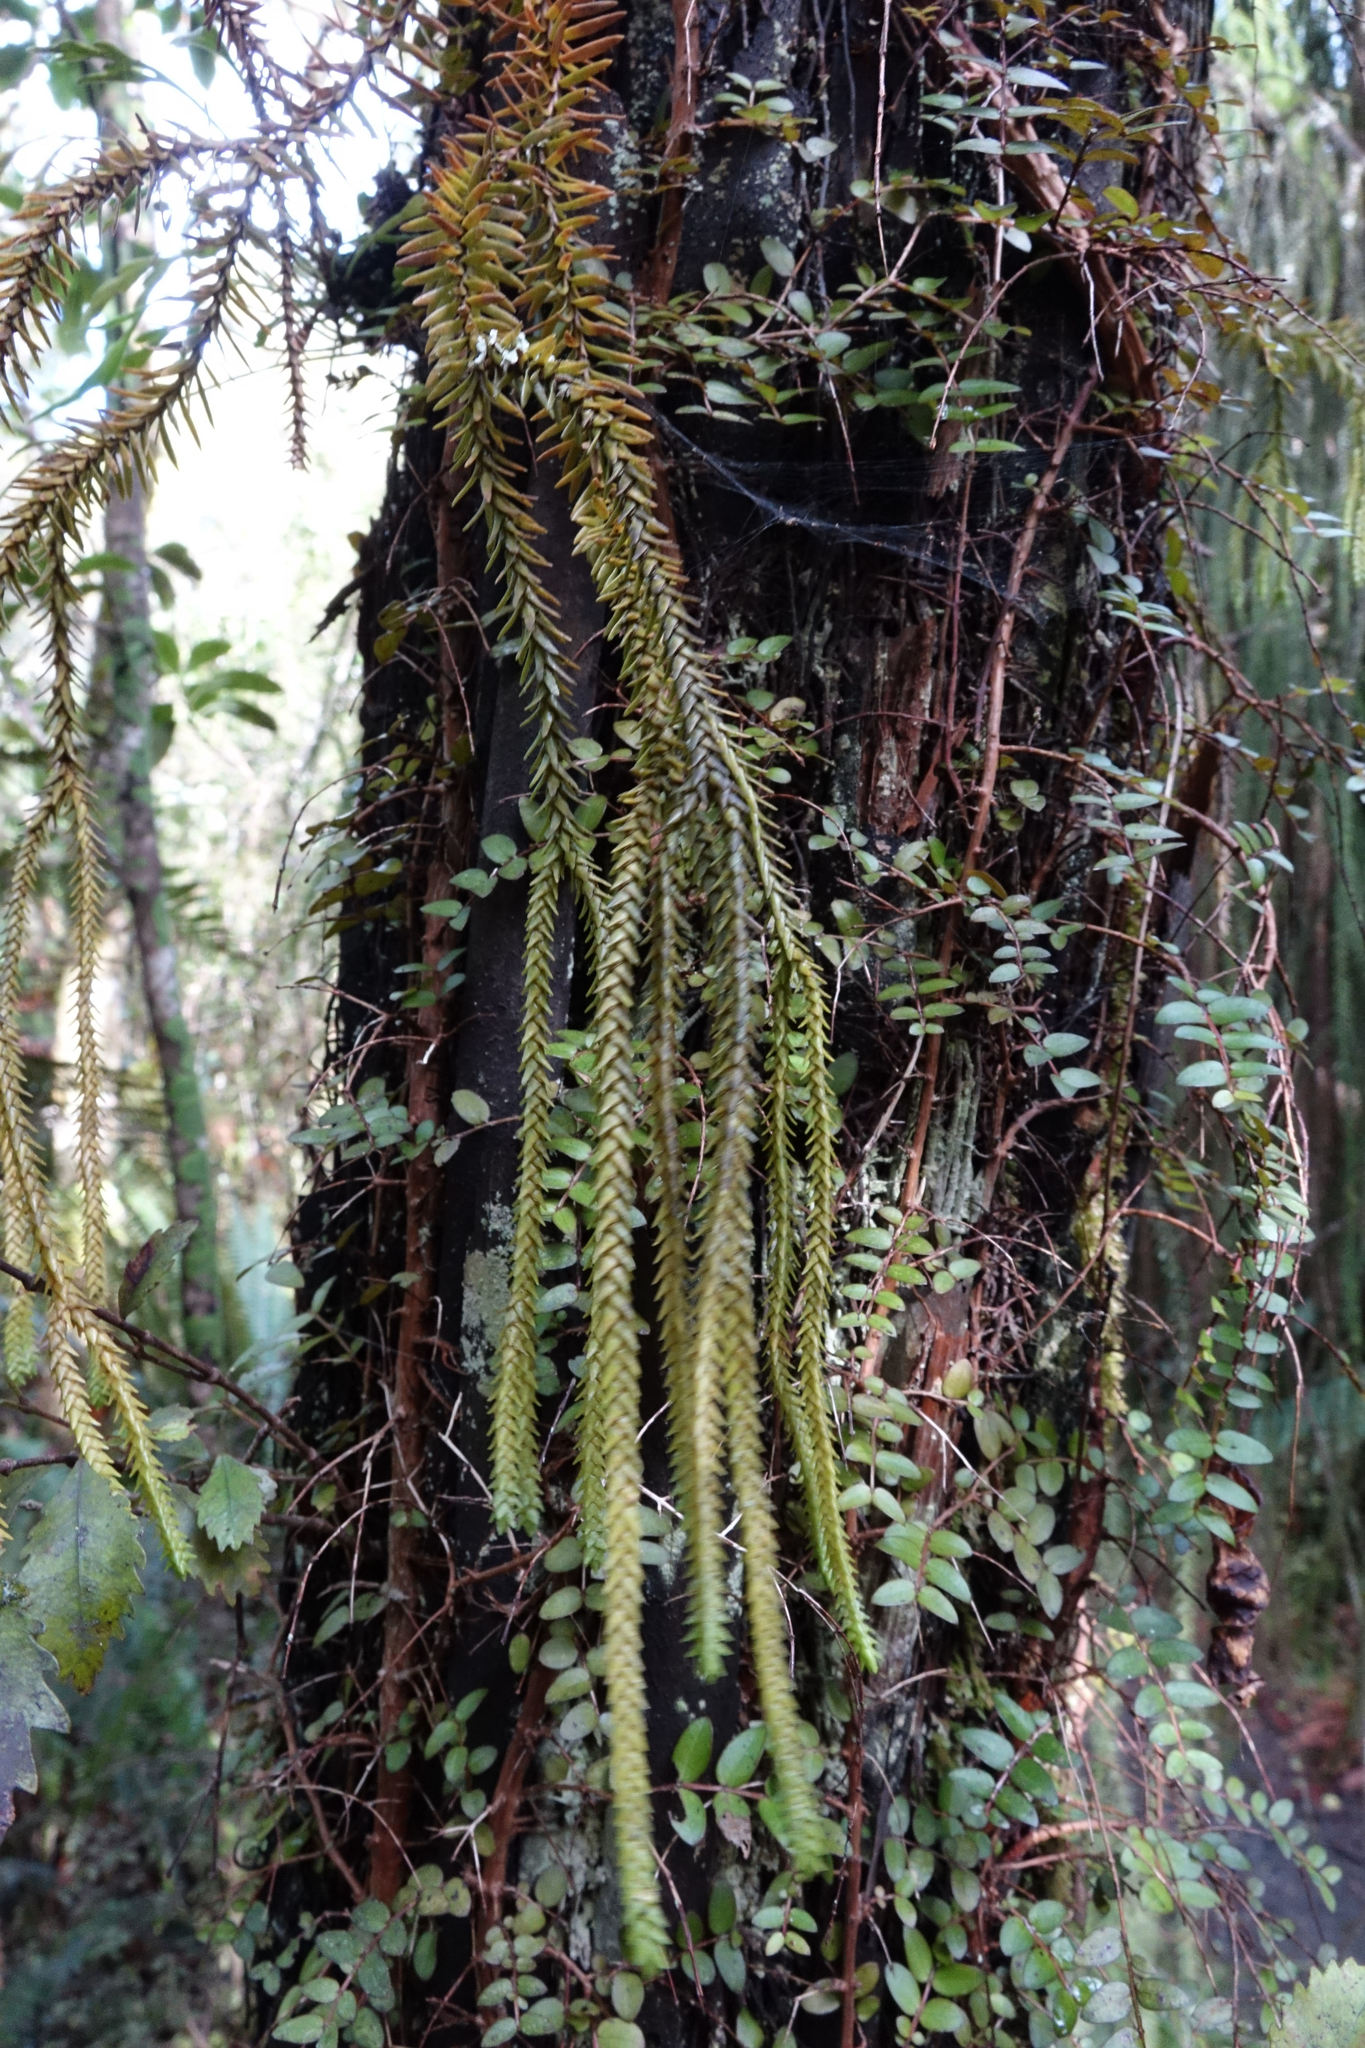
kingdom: Plantae
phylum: Tracheophyta
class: Lycopodiopsida
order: Lycopodiales
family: Lycopodiaceae
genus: Phlegmariurus
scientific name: Phlegmariurus varius
